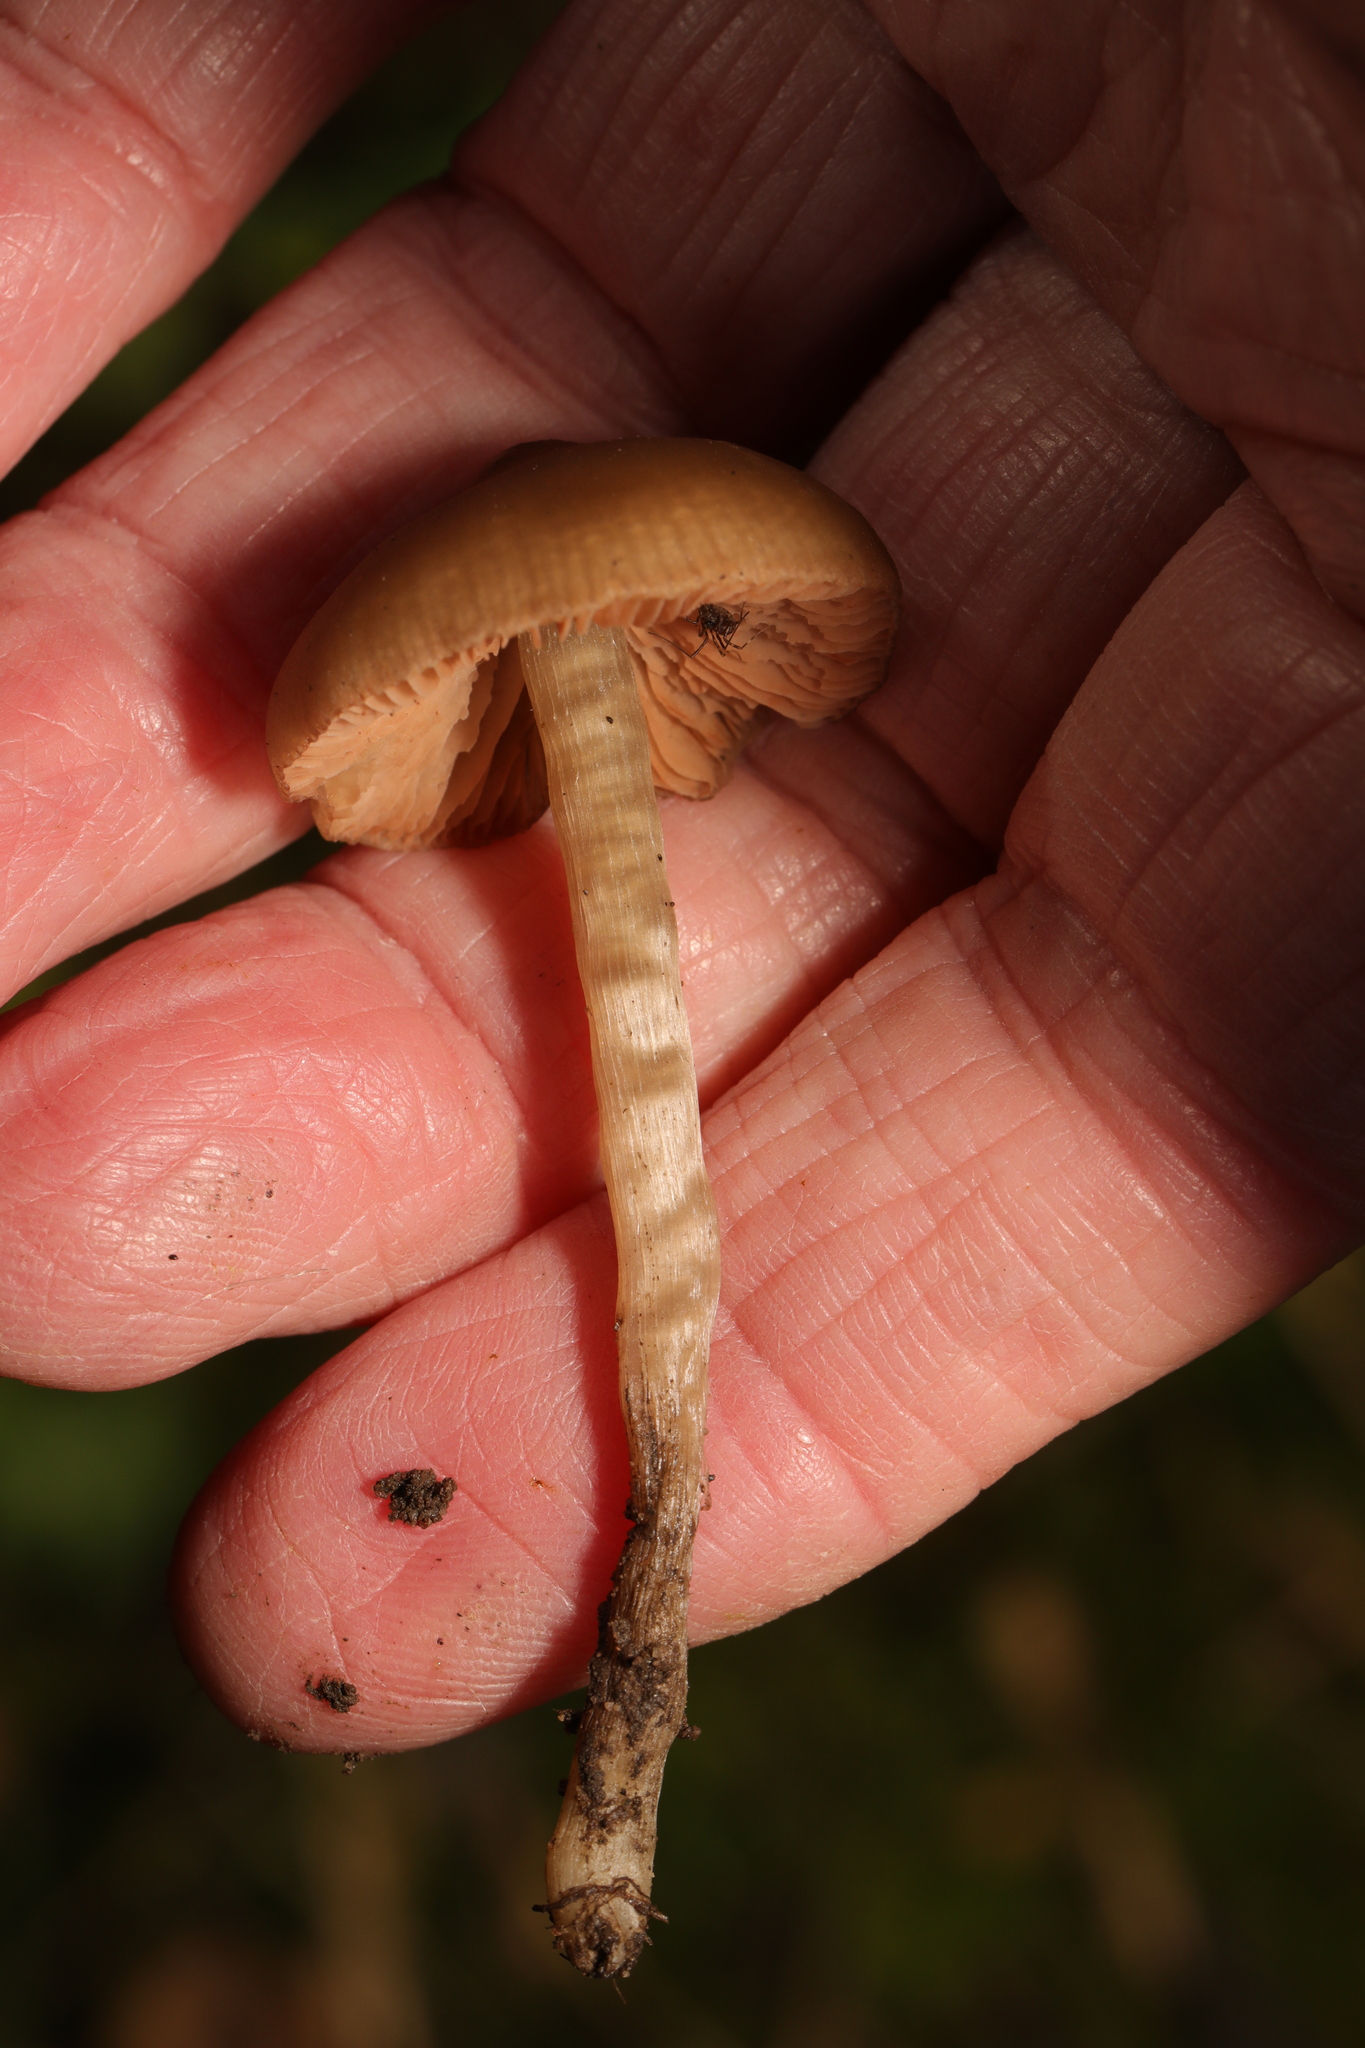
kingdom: Fungi
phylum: Basidiomycota
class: Agaricomycetes
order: Agaricales
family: Entolomataceae
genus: Entoloma
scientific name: Entoloma
